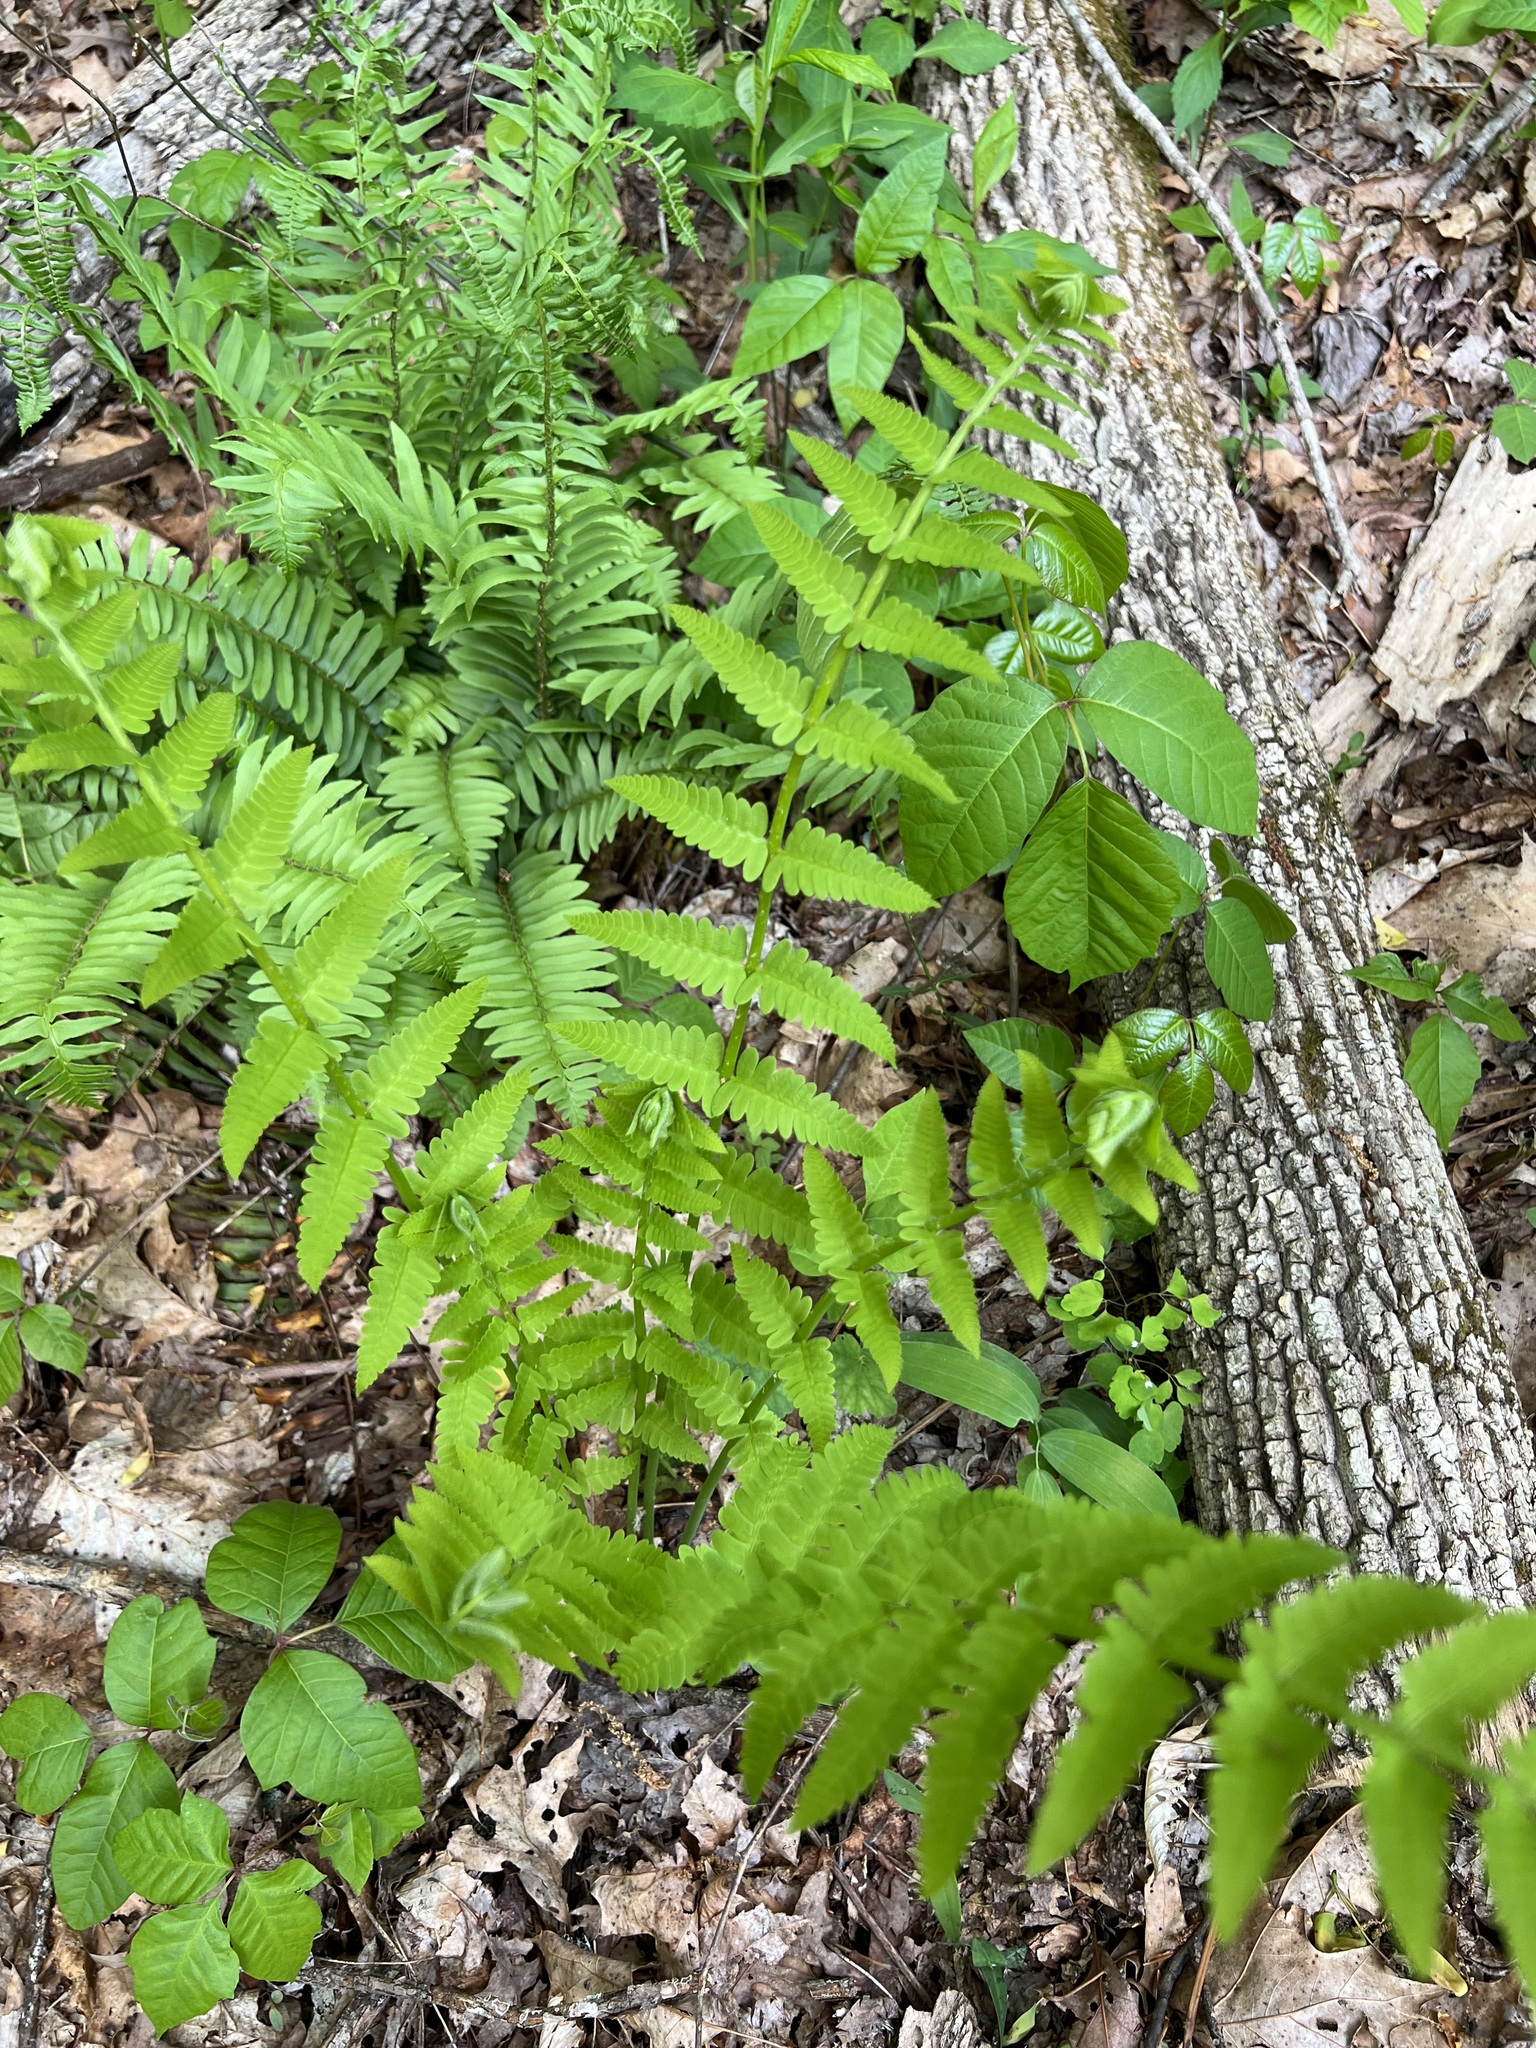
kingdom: Plantae
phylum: Tracheophyta
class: Polypodiopsida
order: Osmundales
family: Osmundaceae
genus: Claytosmunda
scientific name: Claytosmunda claytoniana
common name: Clayton's fern
